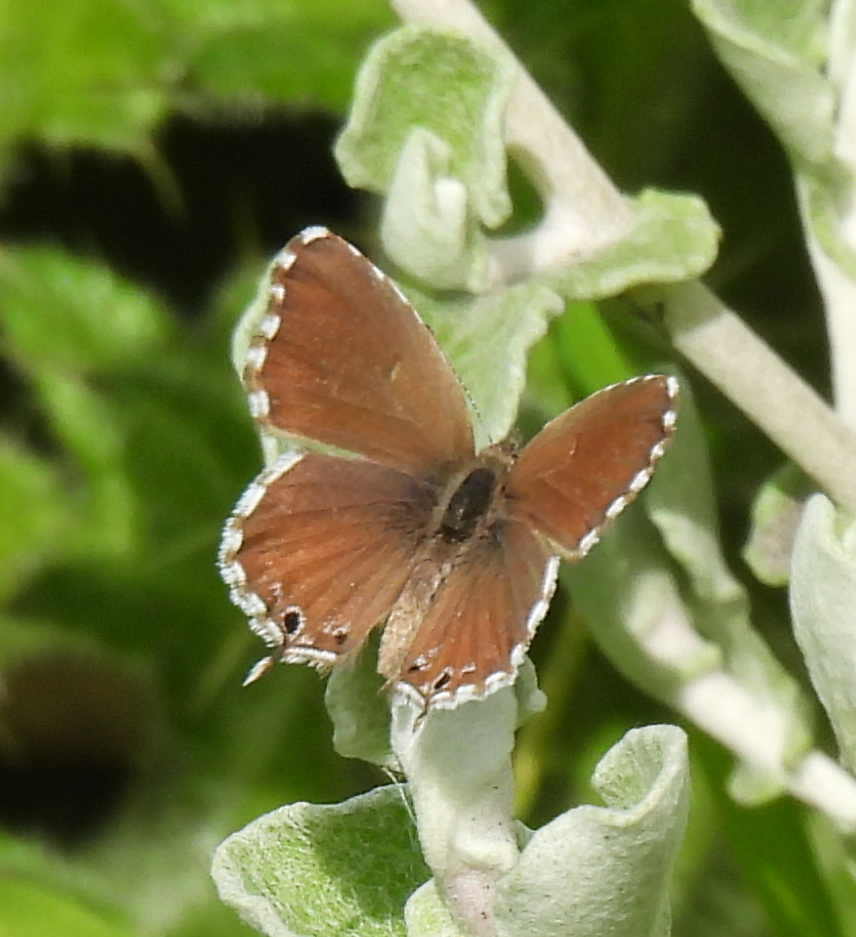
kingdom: Animalia
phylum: Arthropoda
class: Insecta
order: Lepidoptera
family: Lycaenidae
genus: Cacyreus
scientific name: Cacyreus marshalli
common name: Geranium bronze
